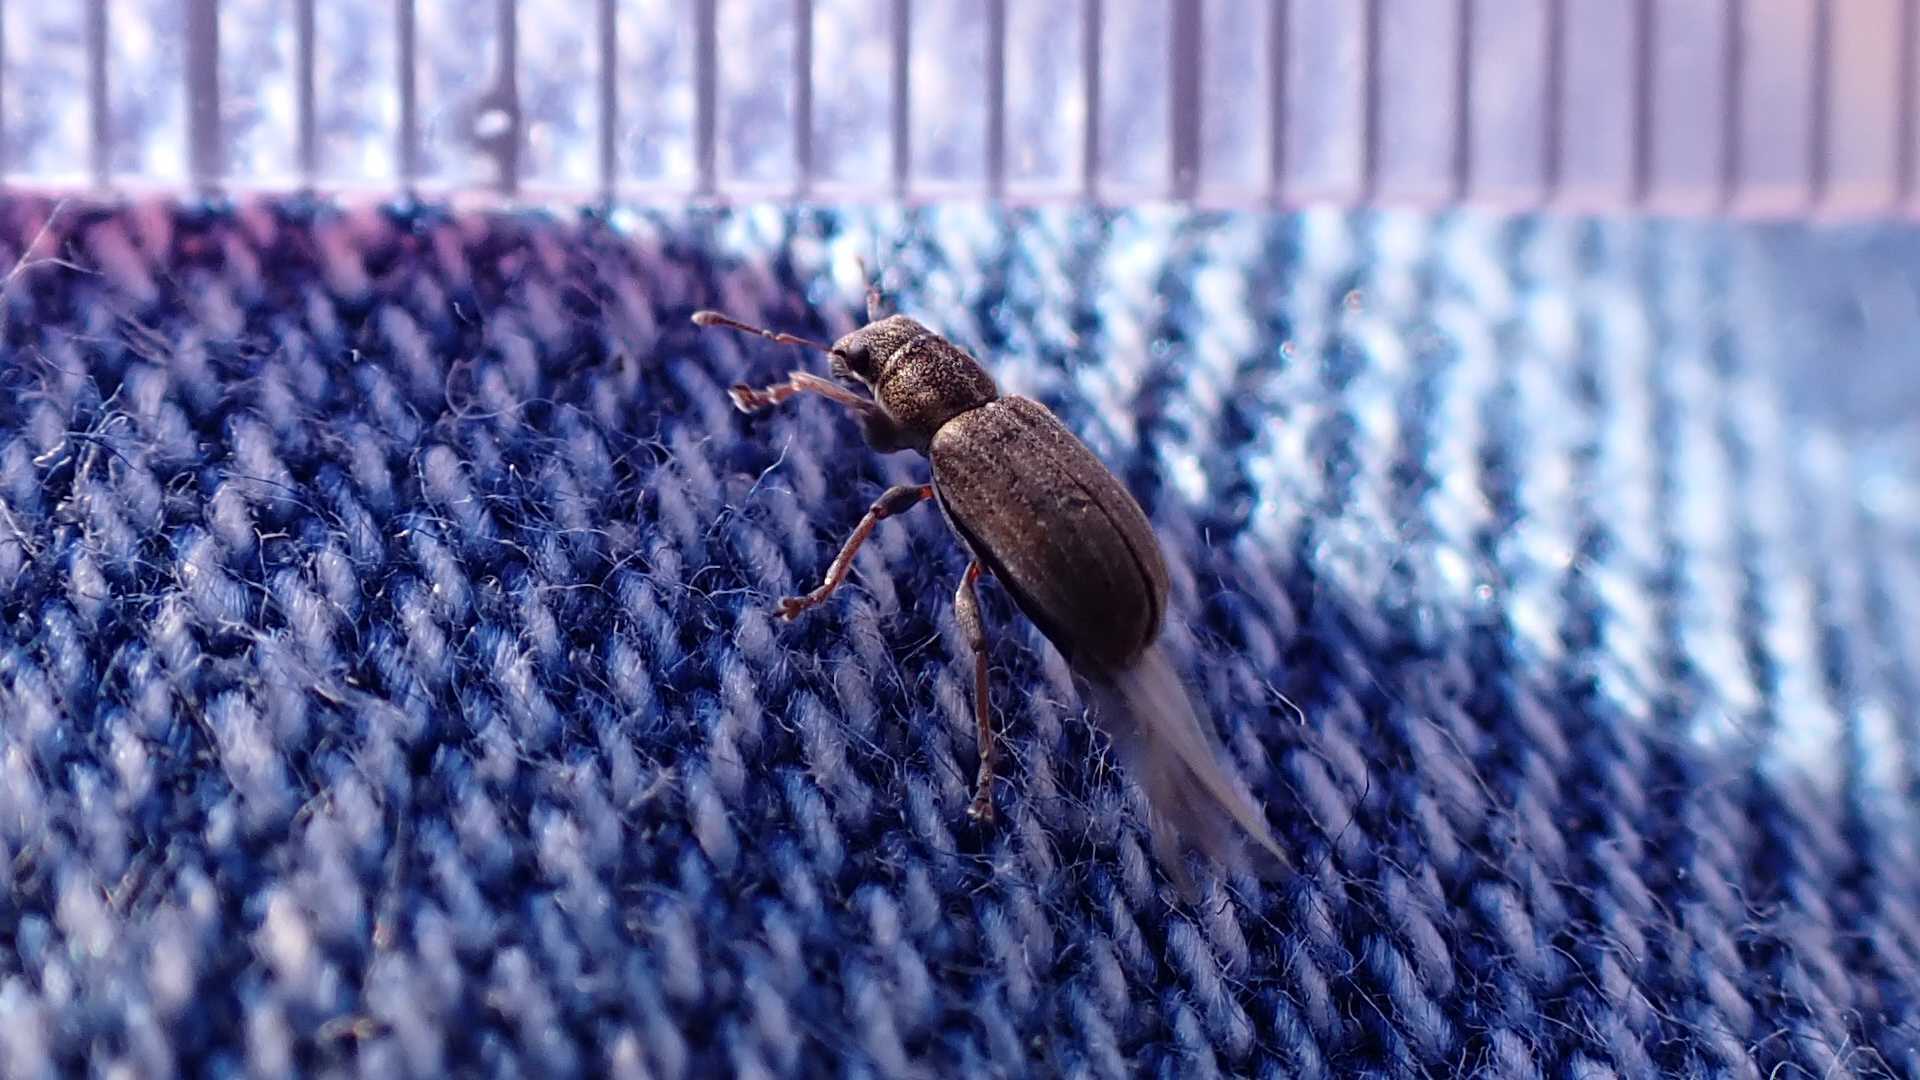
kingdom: Animalia
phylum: Arthropoda
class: Insecta
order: Coleoptera
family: Curculionidae
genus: Sitona
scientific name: Sitona lineatus
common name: Weevil
